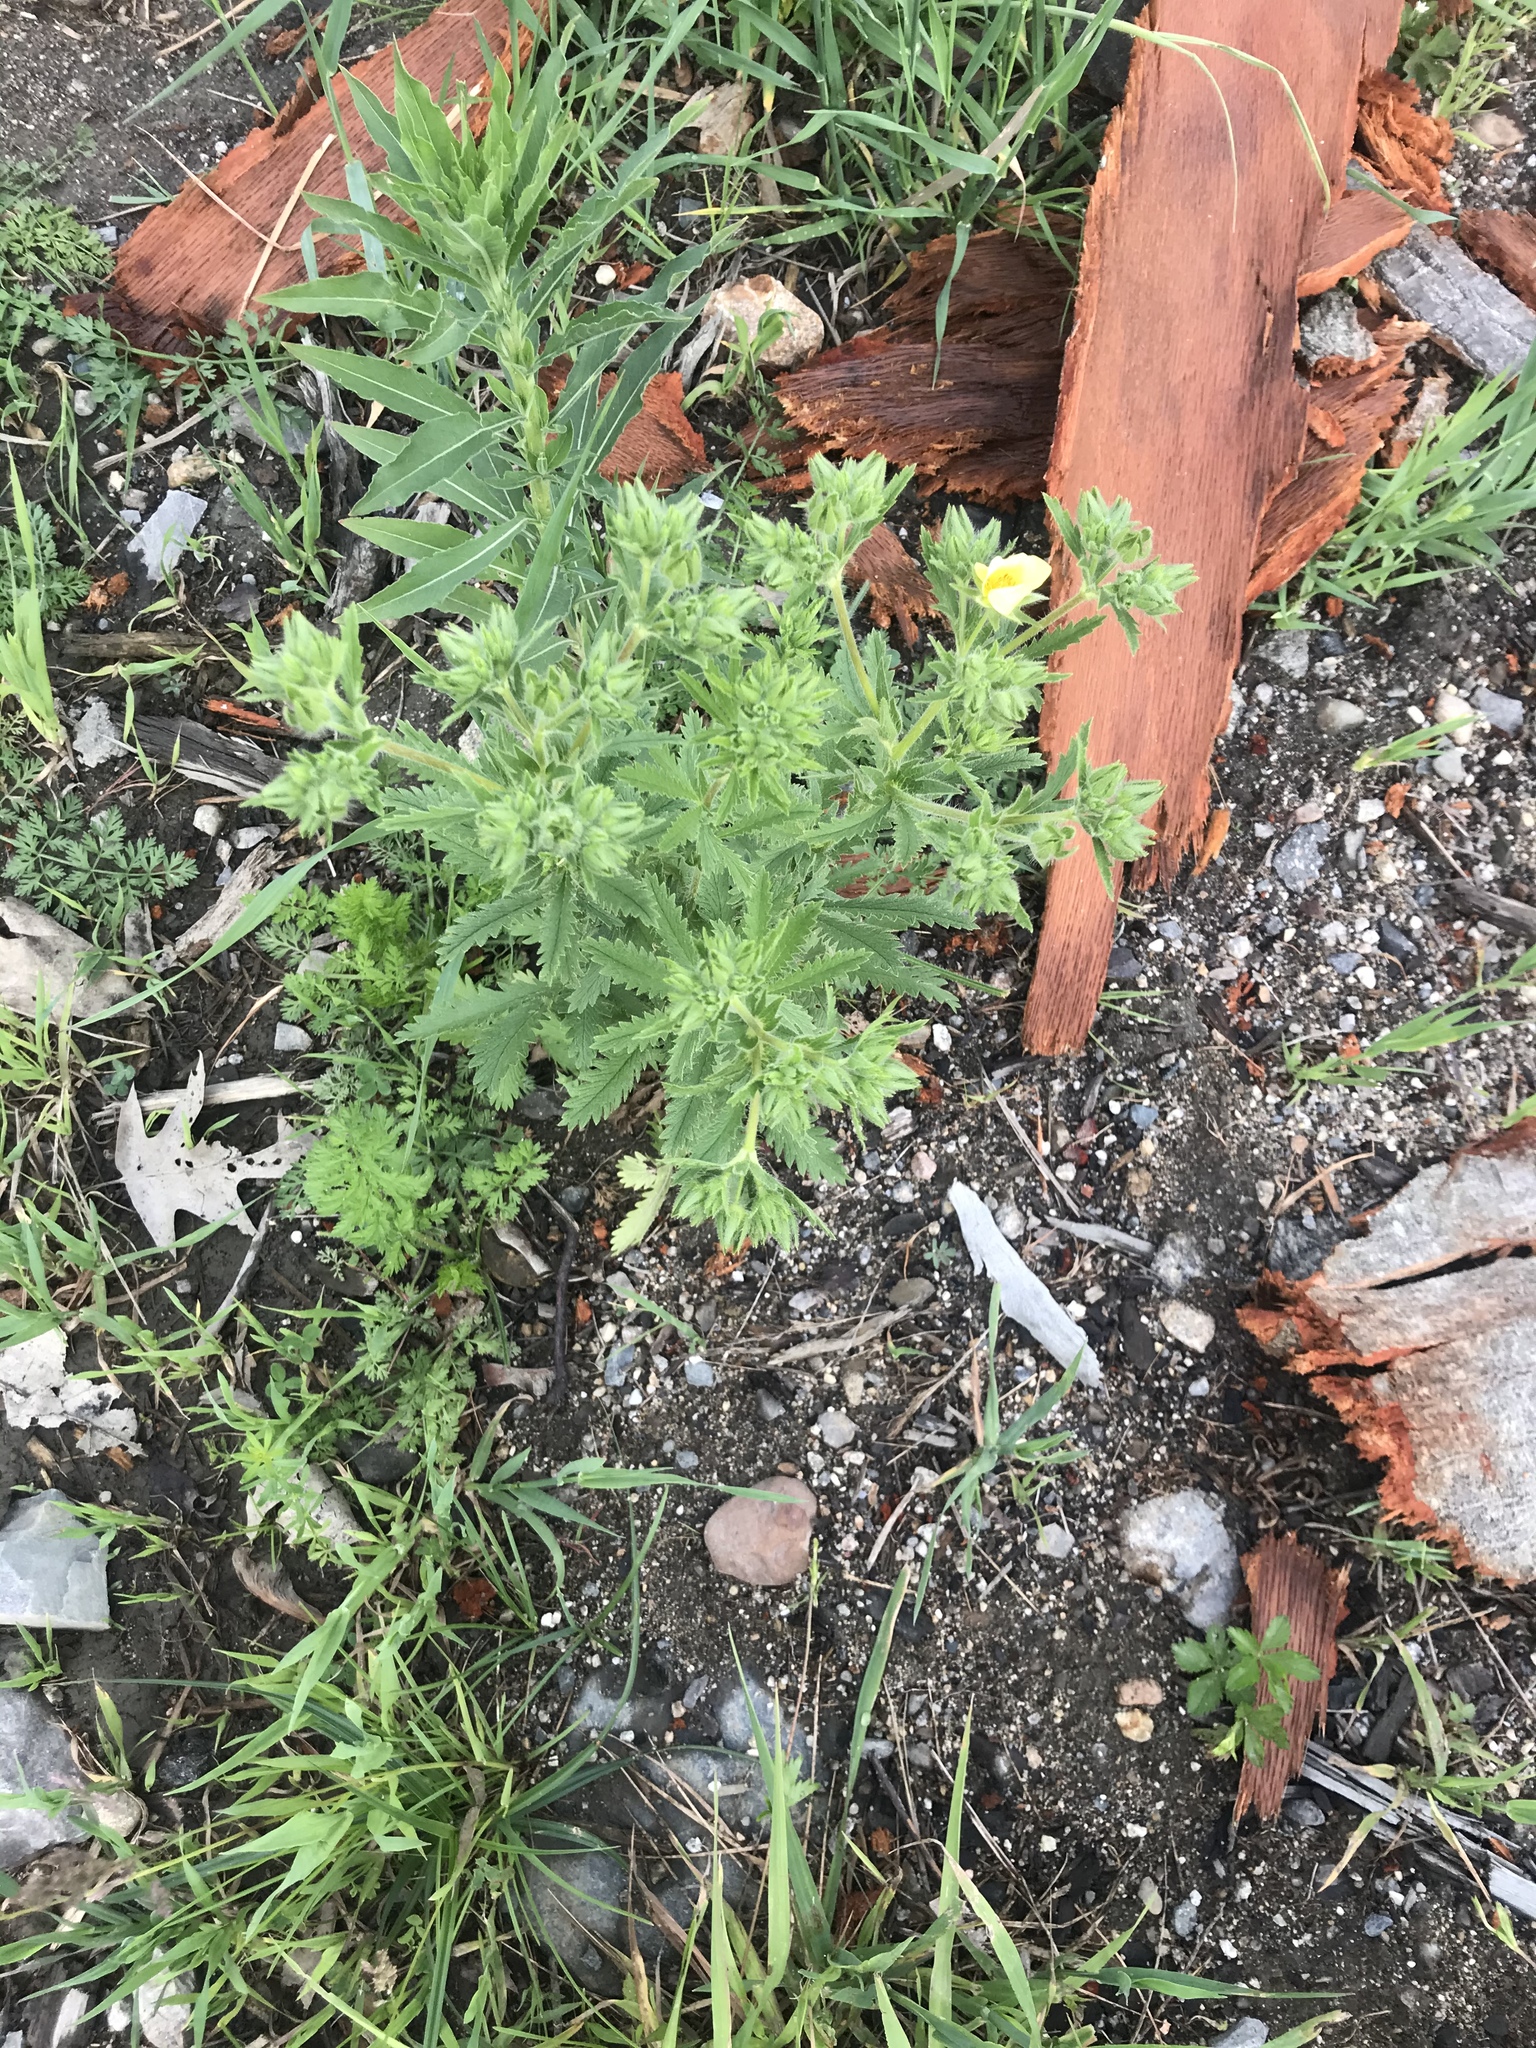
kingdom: Plantae
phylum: Tracheophyta
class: Magnoliopsida
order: Rosales
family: Rosaceae
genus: Potentilla
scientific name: Potentilla recta
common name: Sulphur cinquefoil
